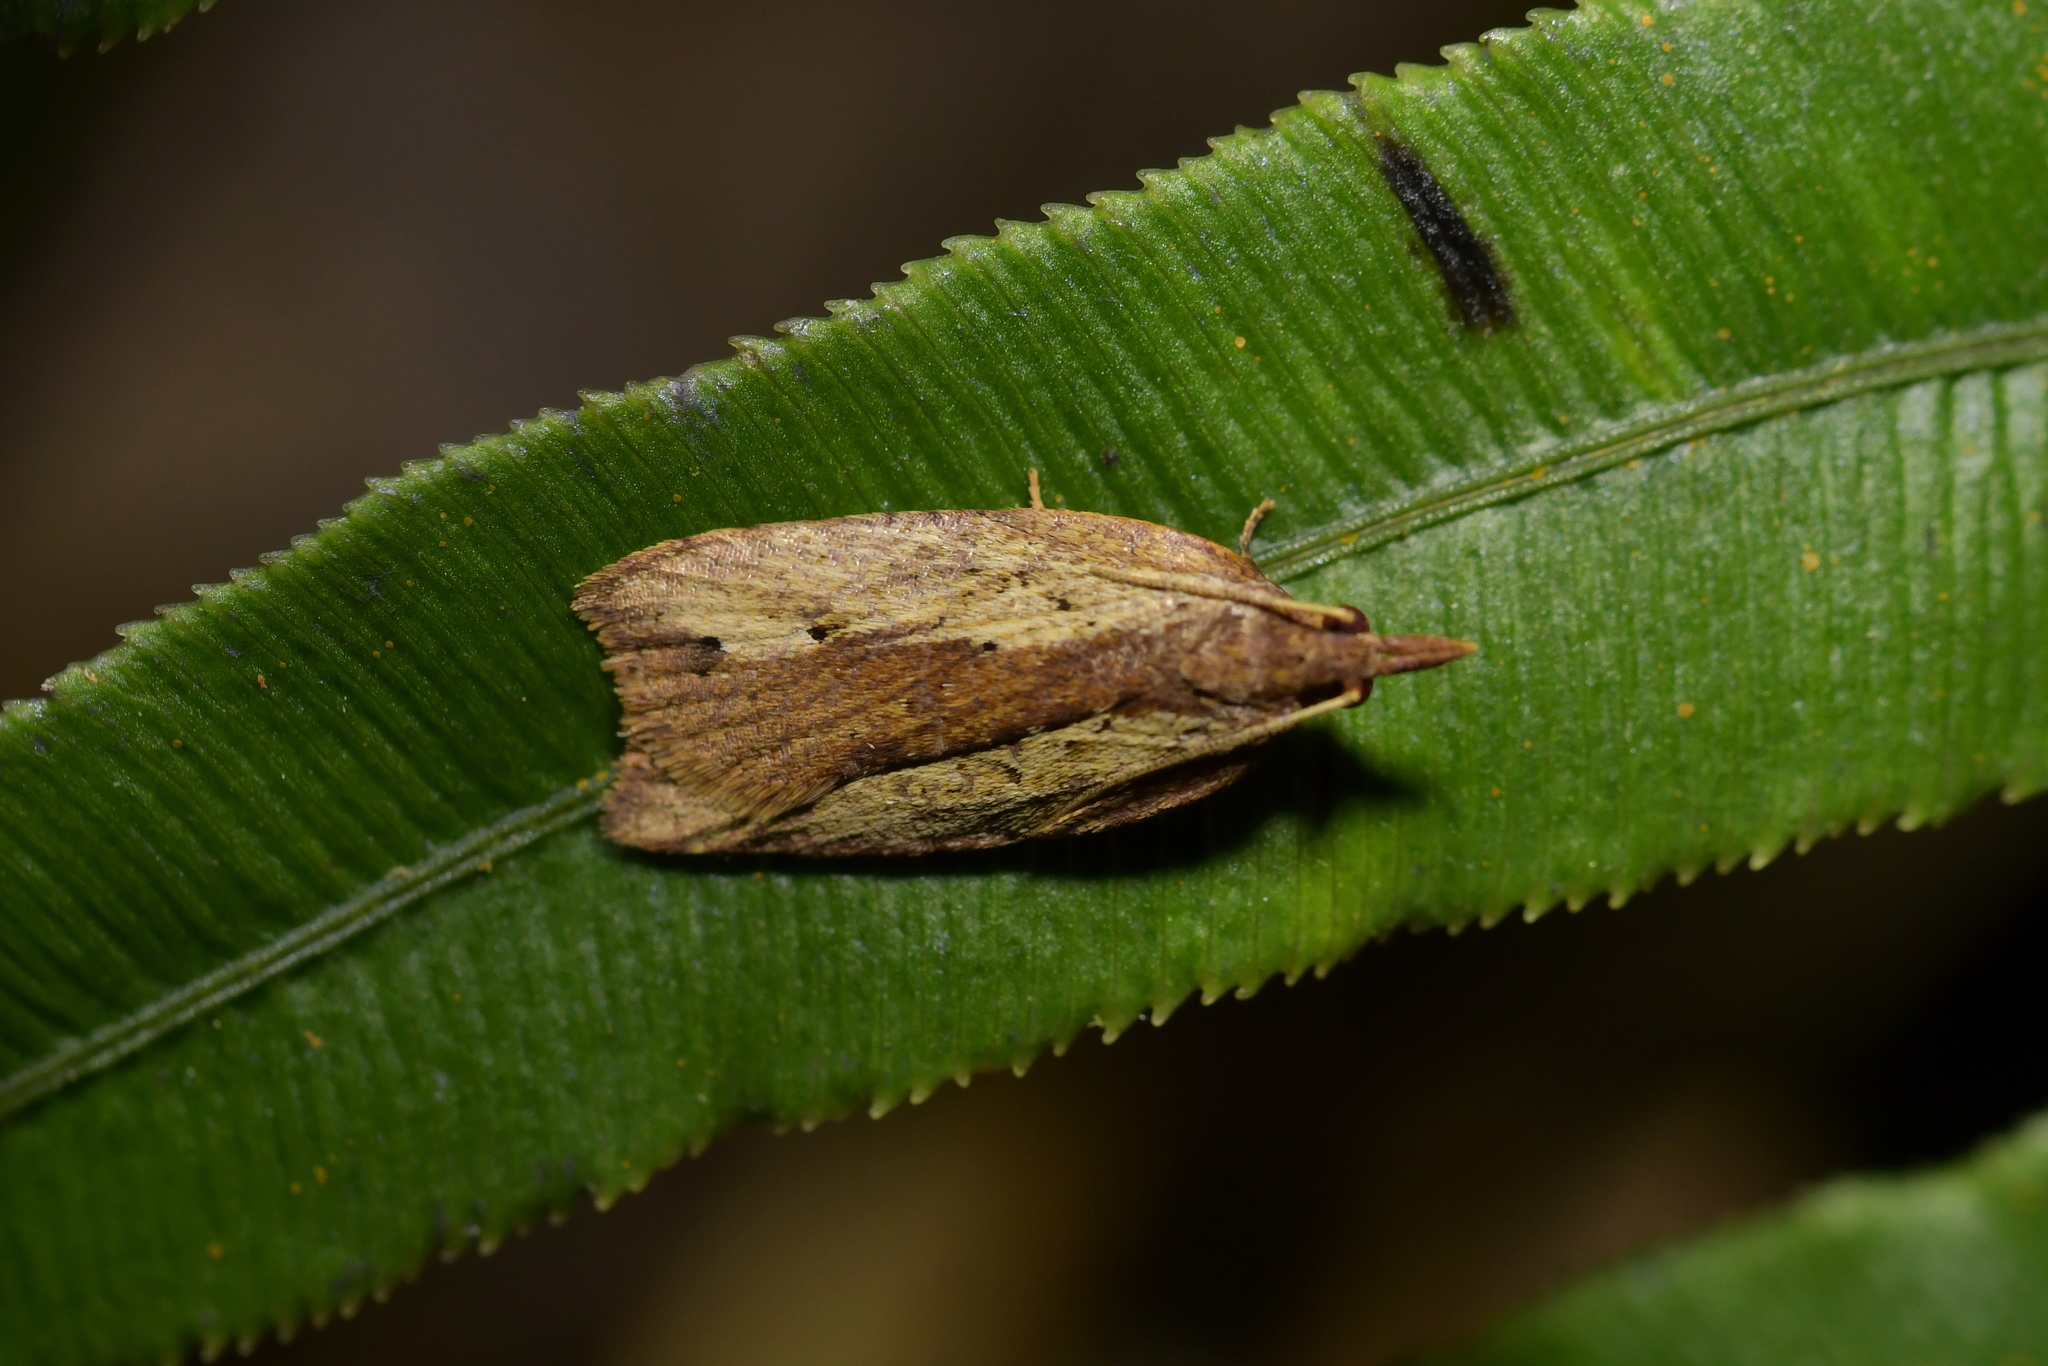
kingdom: Animalia
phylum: Arthropoda
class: Insecta
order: Lepidoptera
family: Tortricidae
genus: Planotortrix
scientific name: Planotortrix notophaea
